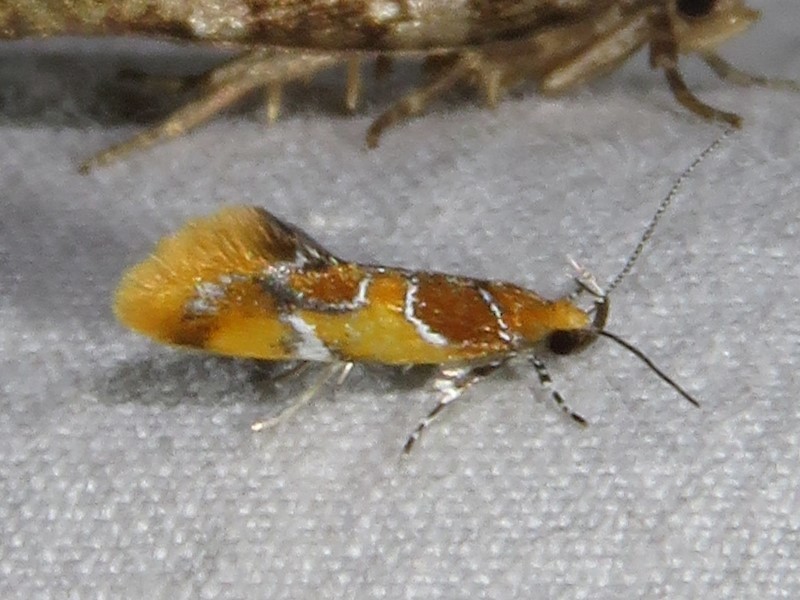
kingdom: Animalia
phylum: Arthropoda
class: Insecta
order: Lepidoptera
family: Oecophoridae
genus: Callima
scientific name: Callima argenticinctella
